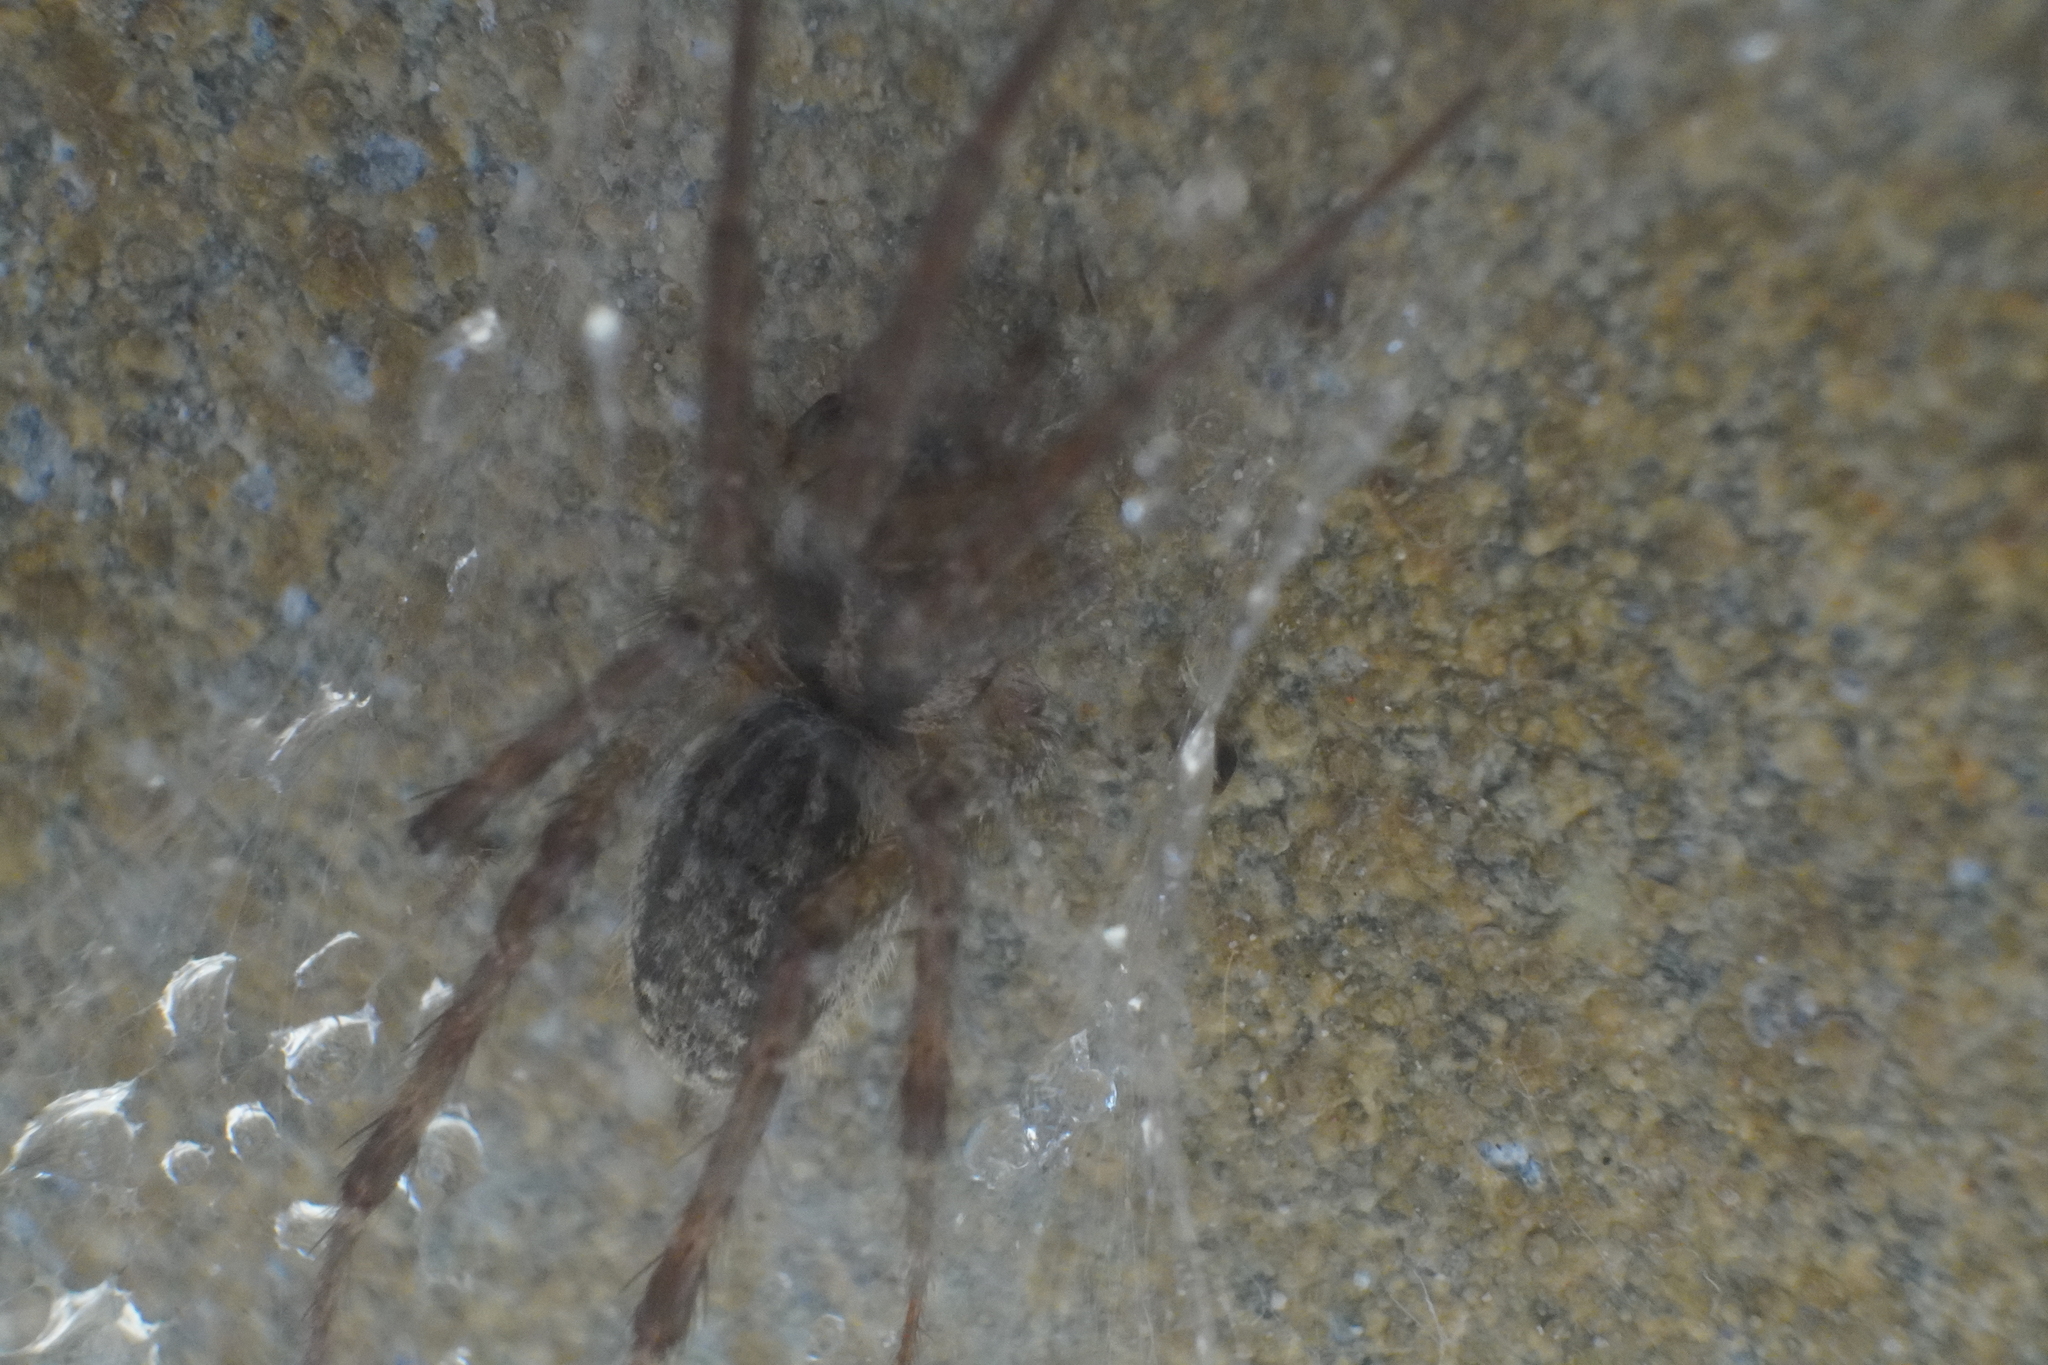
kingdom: Animalia
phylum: Arthropoda
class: Arachnida
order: Araneae
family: Agelenidae
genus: Agelenopsis
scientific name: Agelenopsis
